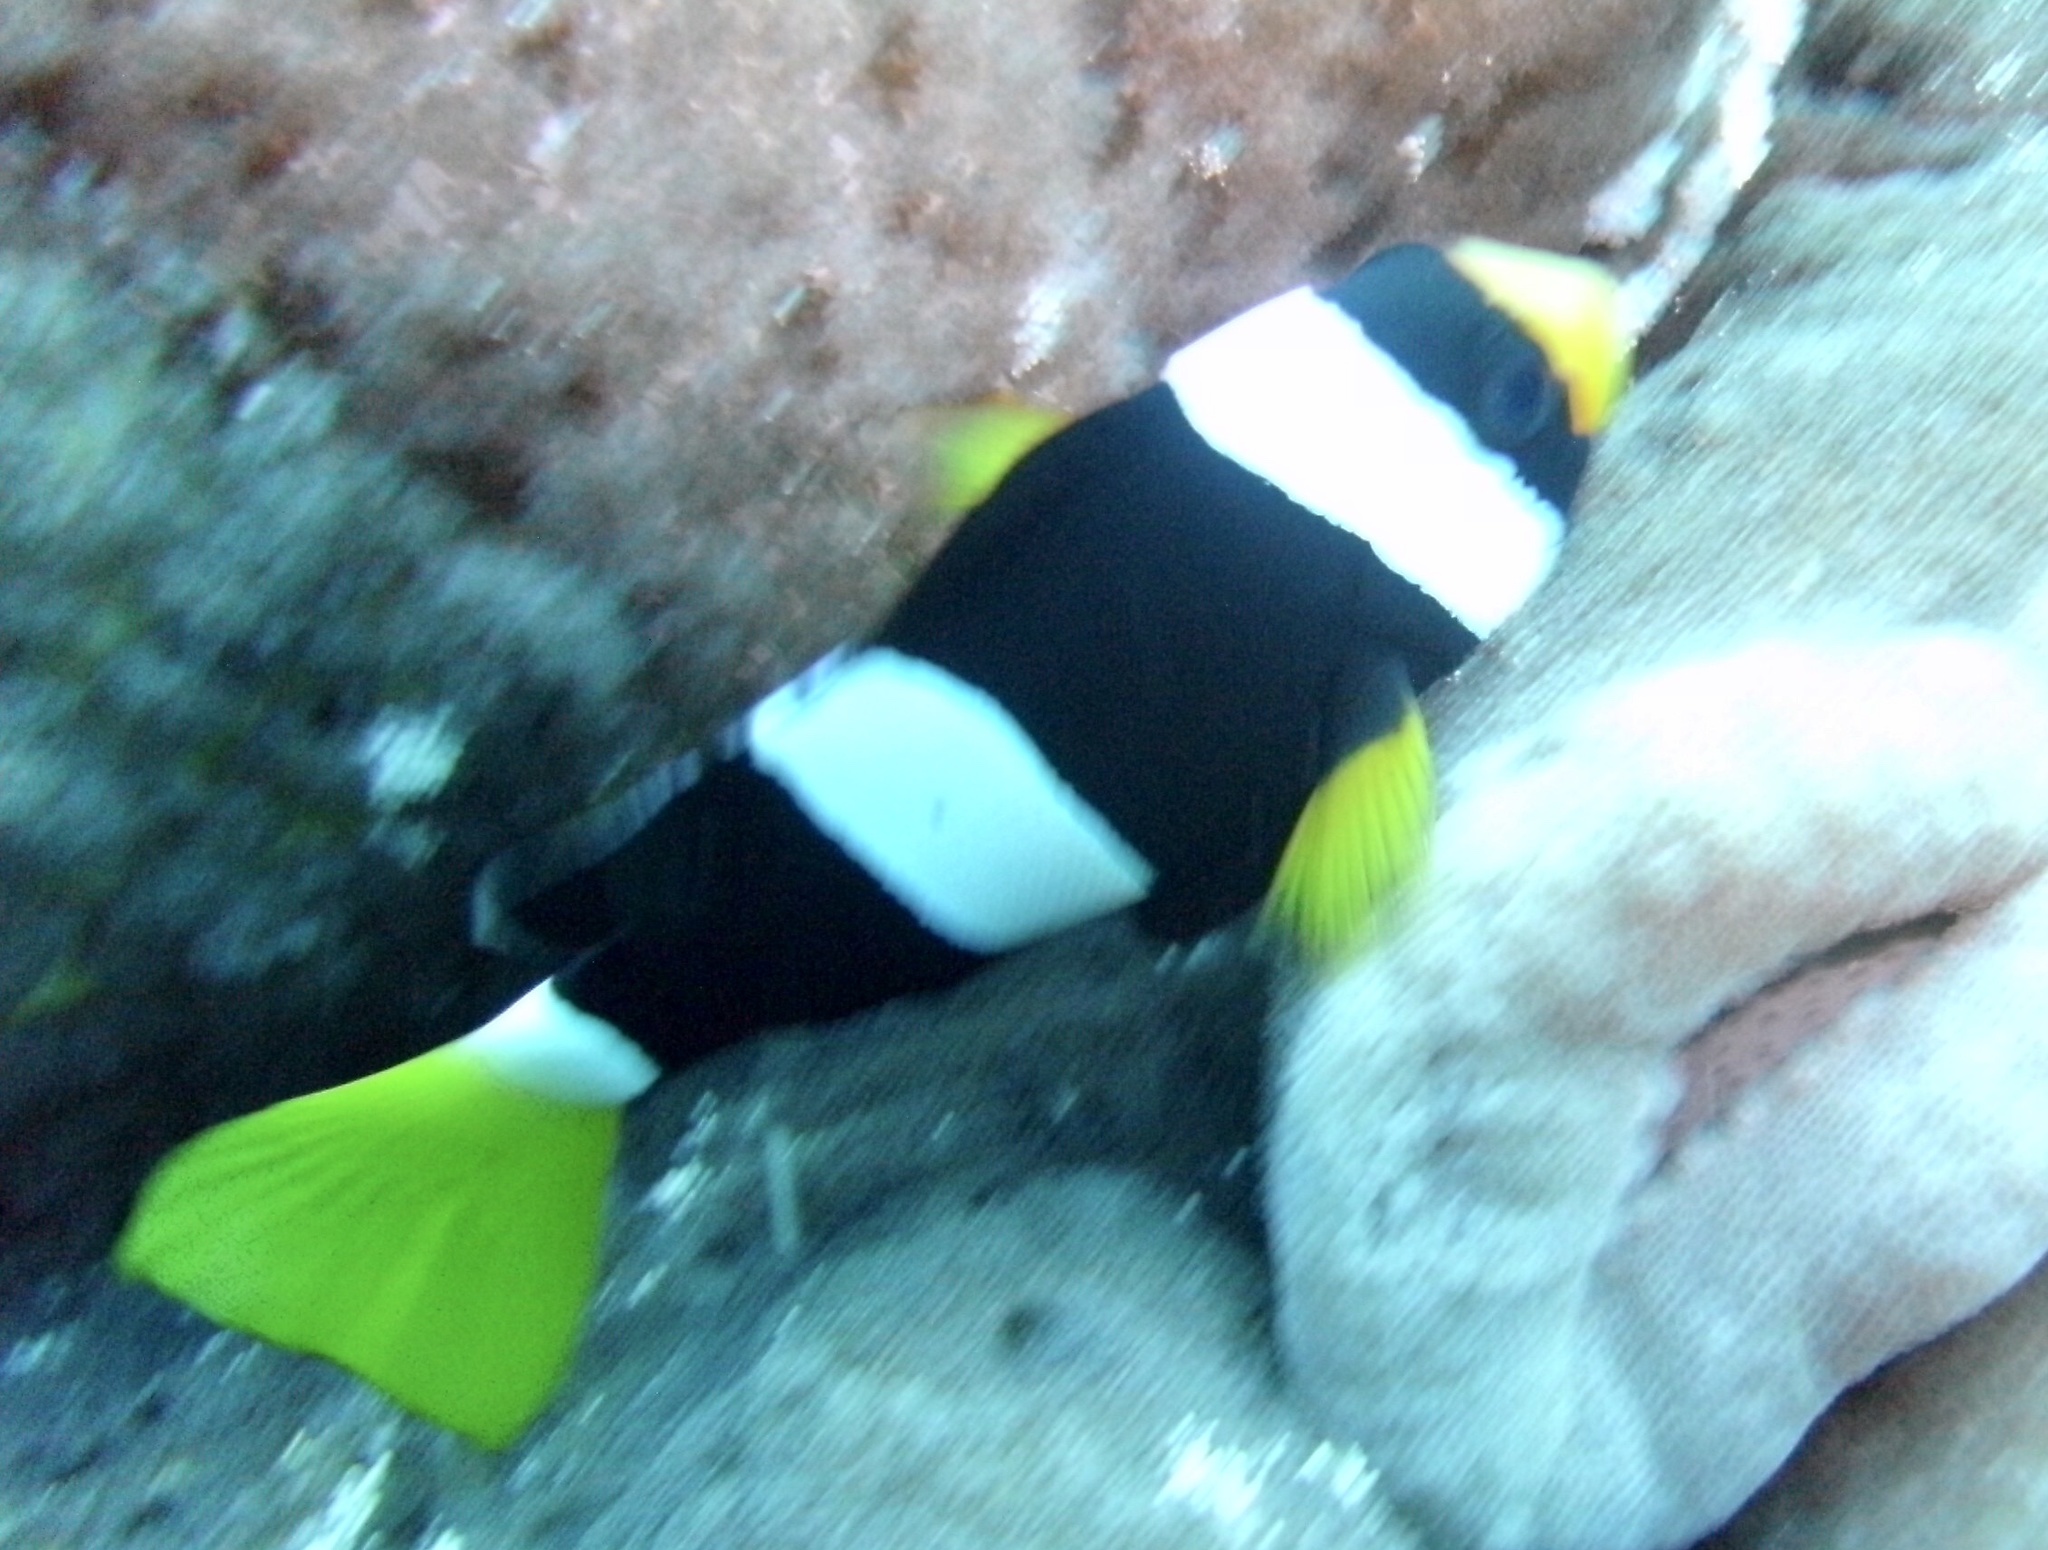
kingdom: Animalia
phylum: Chordata
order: Perciformes
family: Pomacentridae
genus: Amphiprion
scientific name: Amphiprion clarkii
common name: Clark's anemonefish
